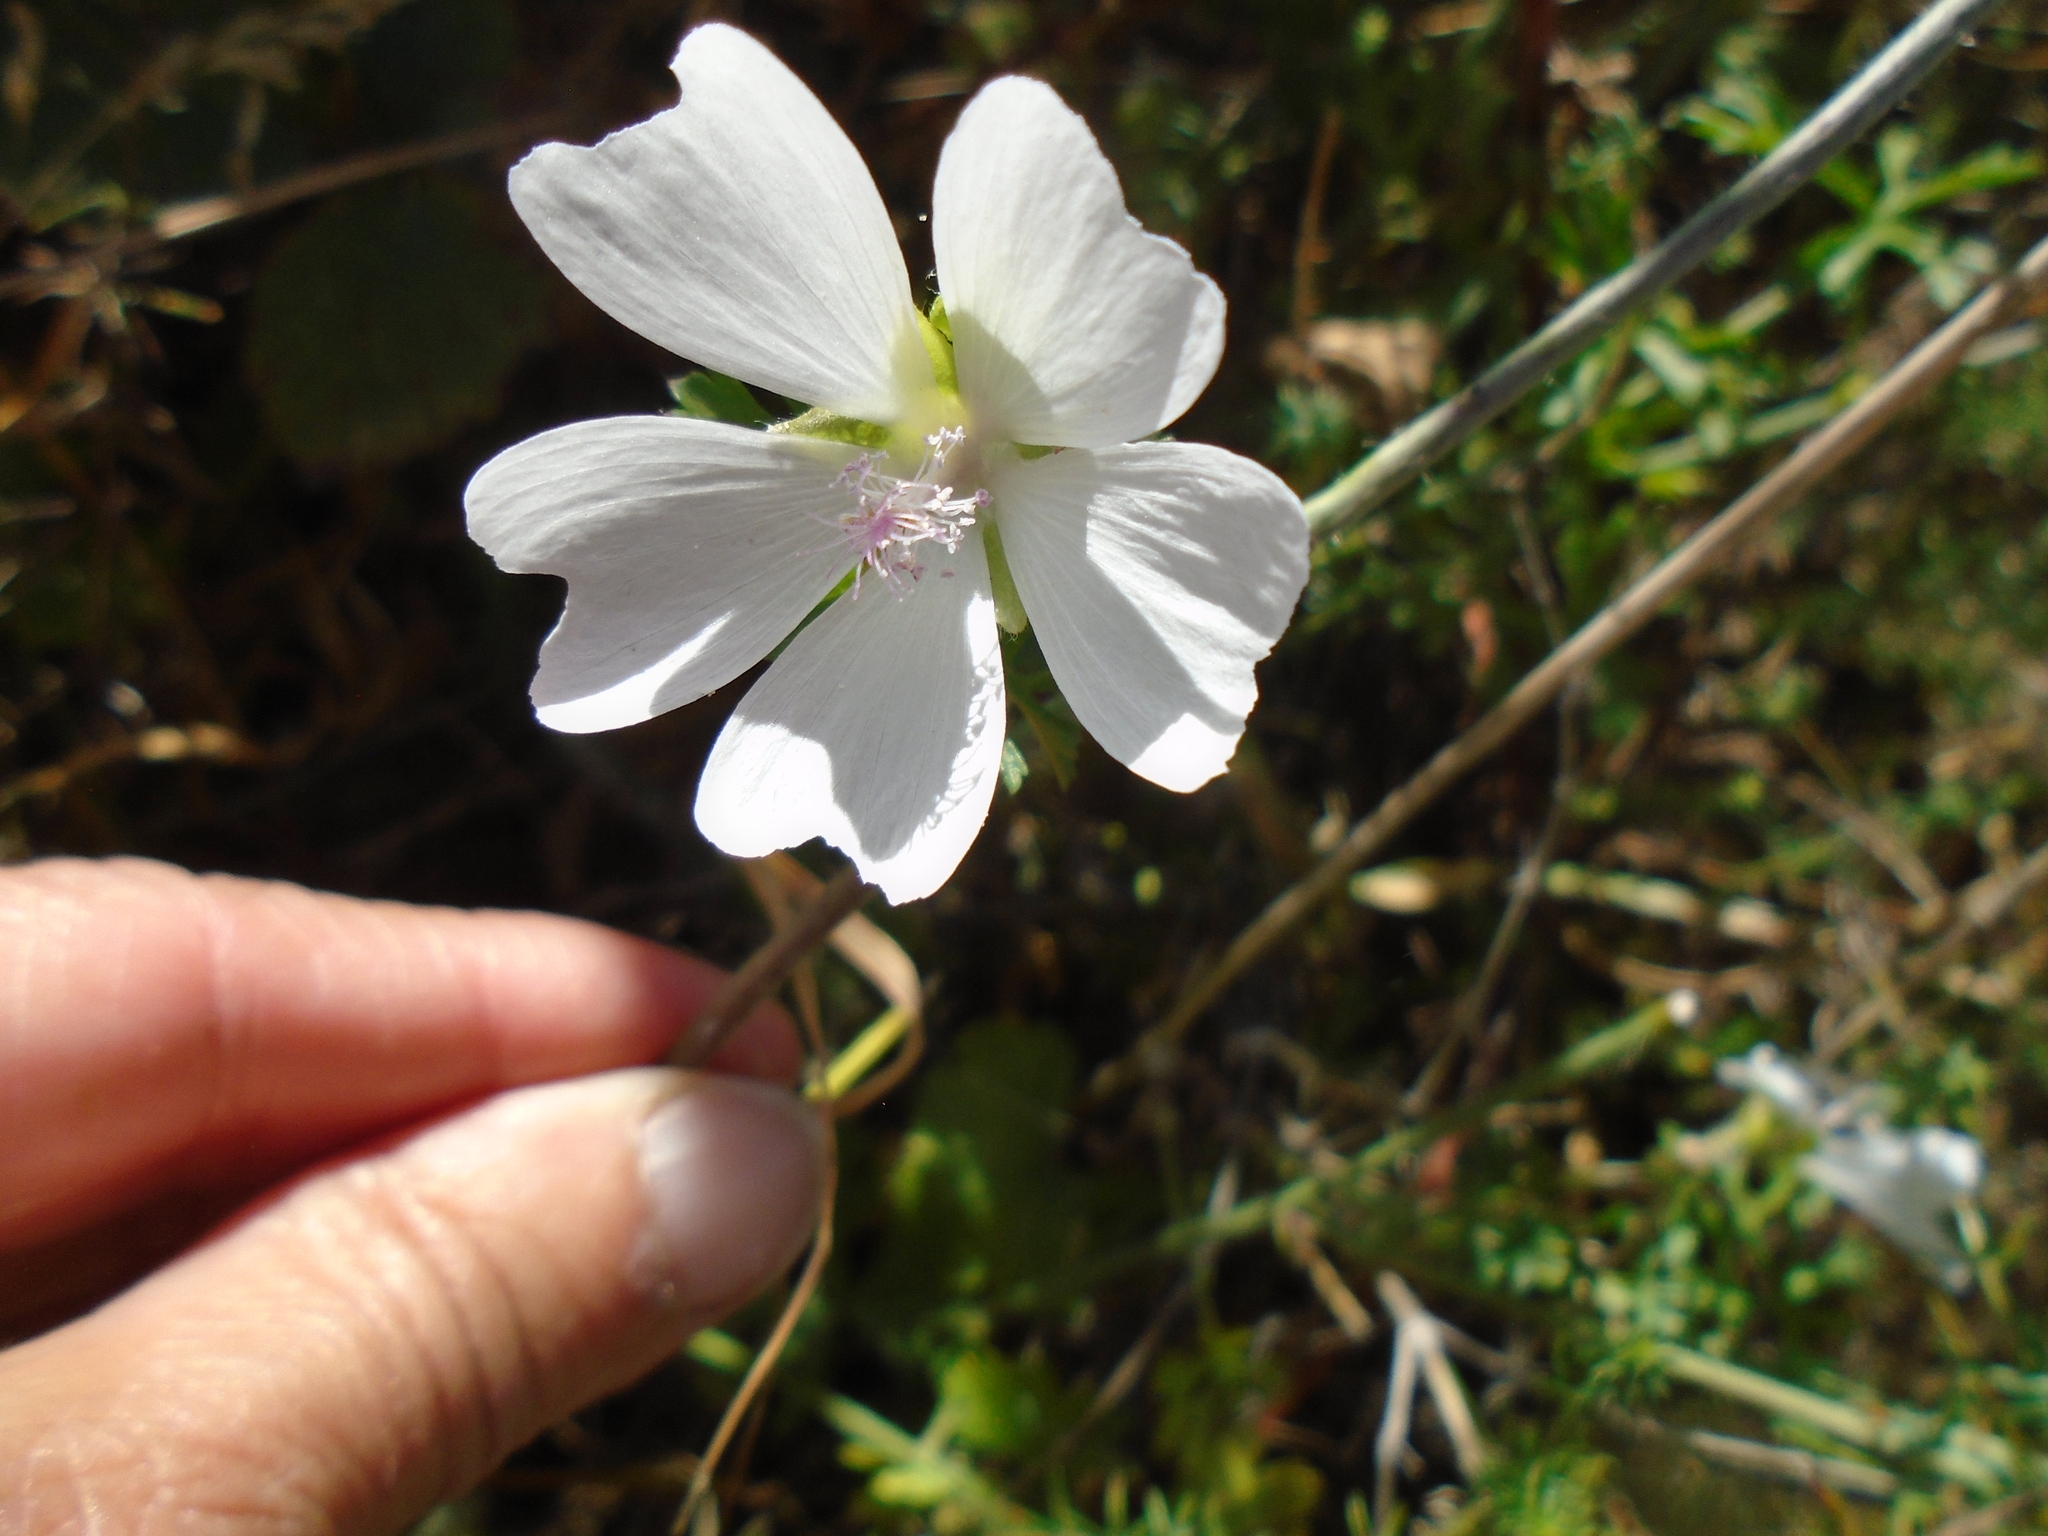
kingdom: Plantae
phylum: Tracheophyta
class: Magnoliopsida
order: Malvales
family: Malvaceae
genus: Malva
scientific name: Malva moschata
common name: Musk mallow
